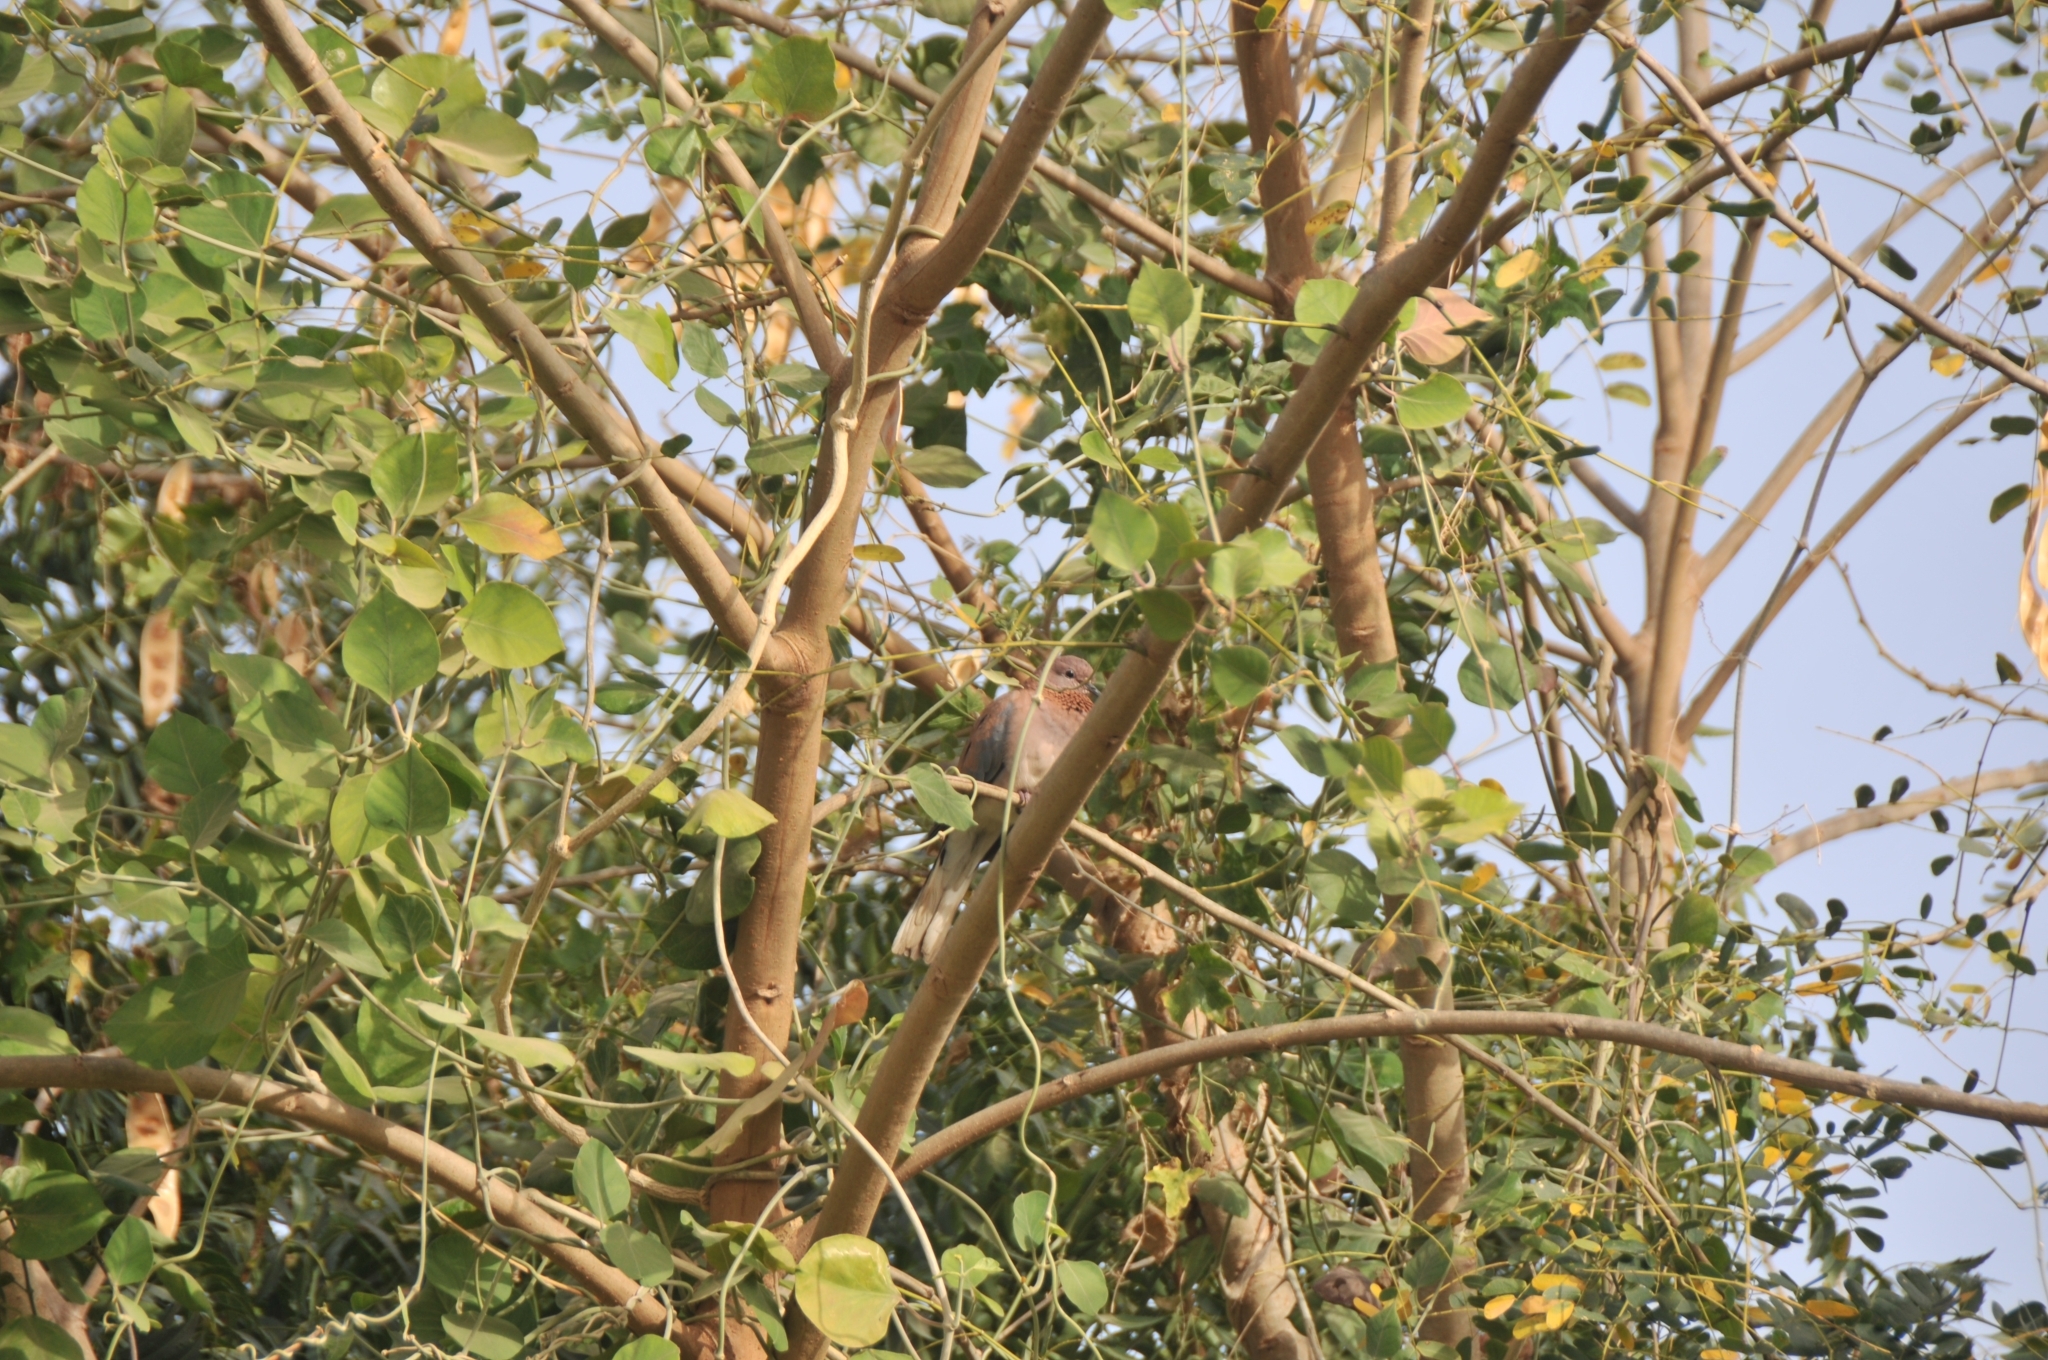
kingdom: Animalia
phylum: Chordata
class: Aves
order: Columbiformes
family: Columbidae
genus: Spilopelia
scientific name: Spilopelia senegalensis
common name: Laughing dove
